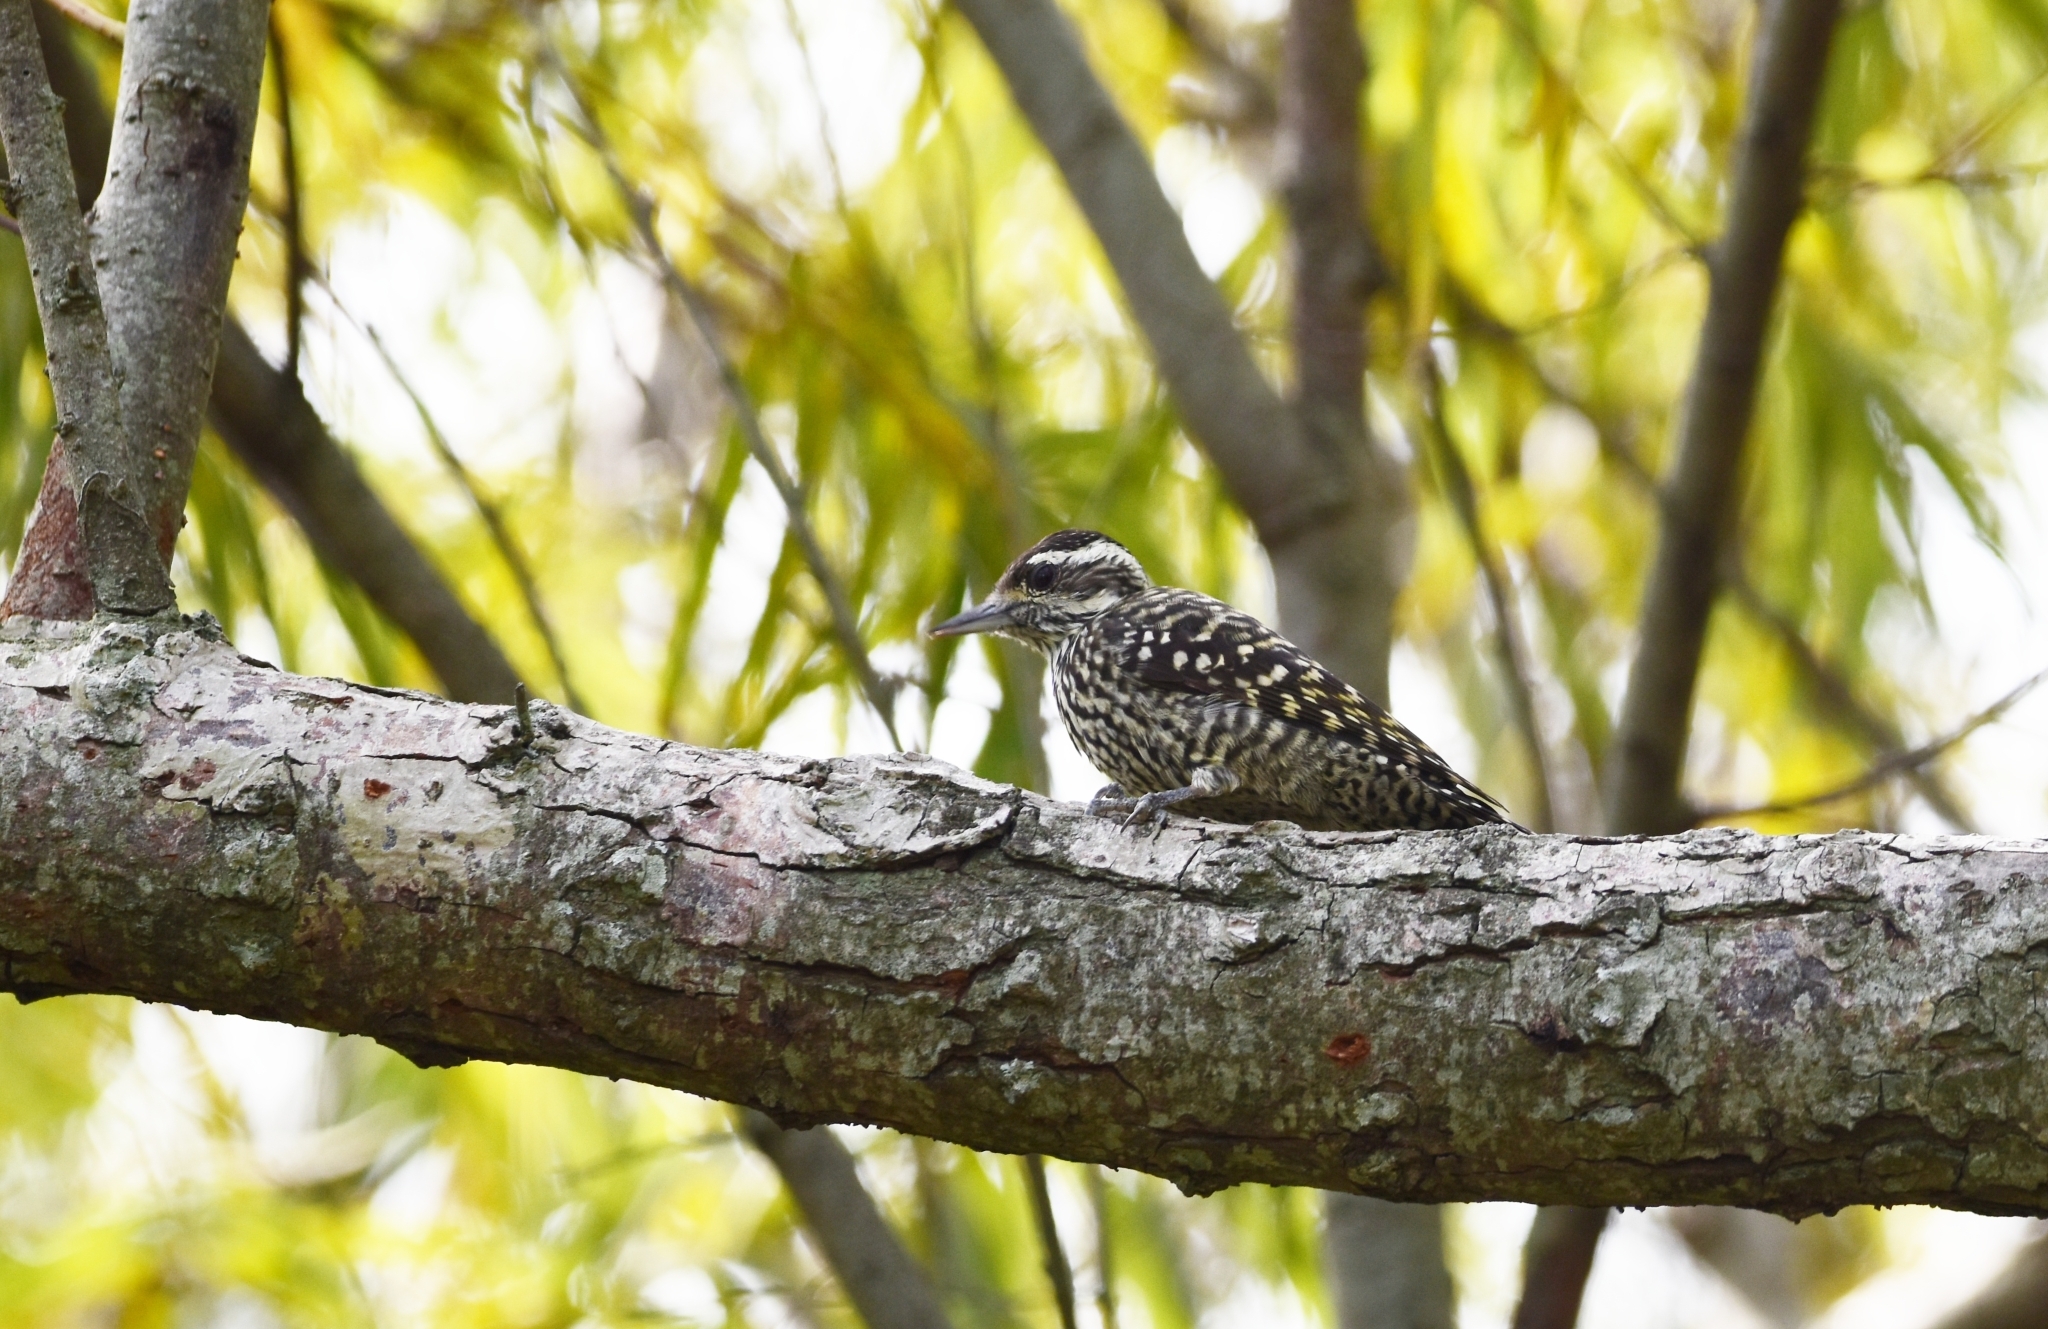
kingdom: Animalia
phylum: Chordata
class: Aves
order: Piciformes
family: Picidae
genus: Veniliornis
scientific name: Veniliornis mixtus
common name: Checkered woodpecker
